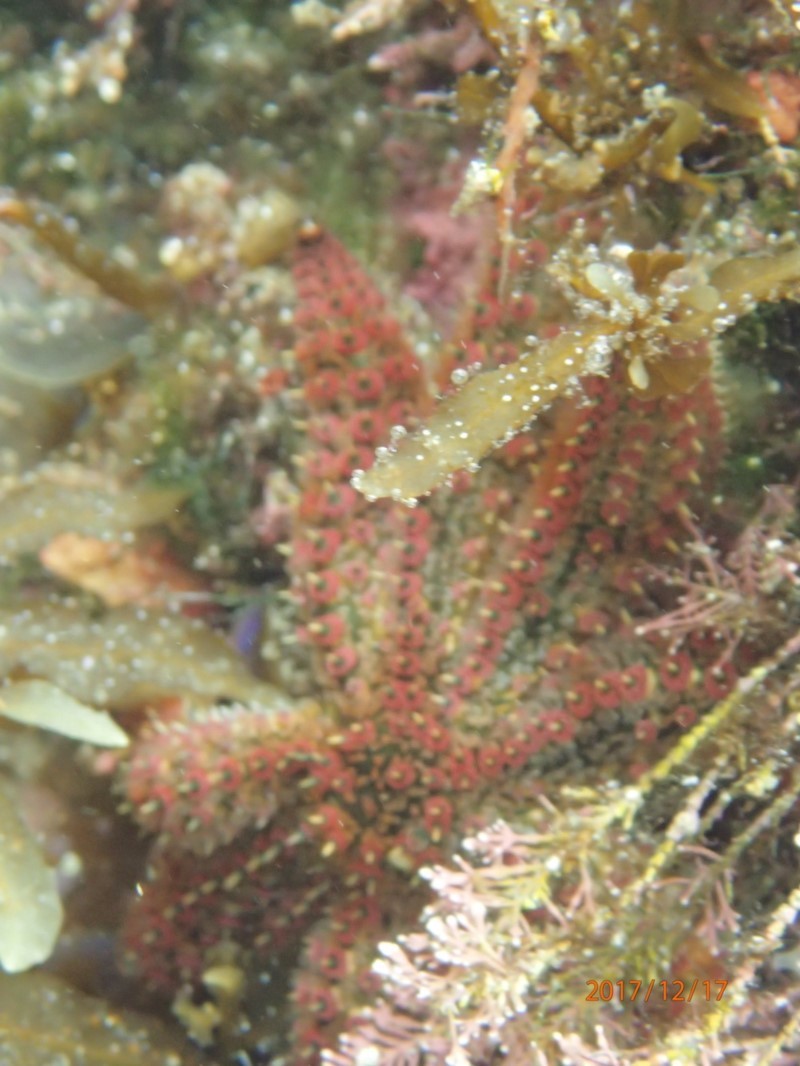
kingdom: Animalia
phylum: Echinodermata
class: Asteroidea
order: Forcipulatida
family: Asteriidae
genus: Coscinasterias
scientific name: Coscinasterias muricata
